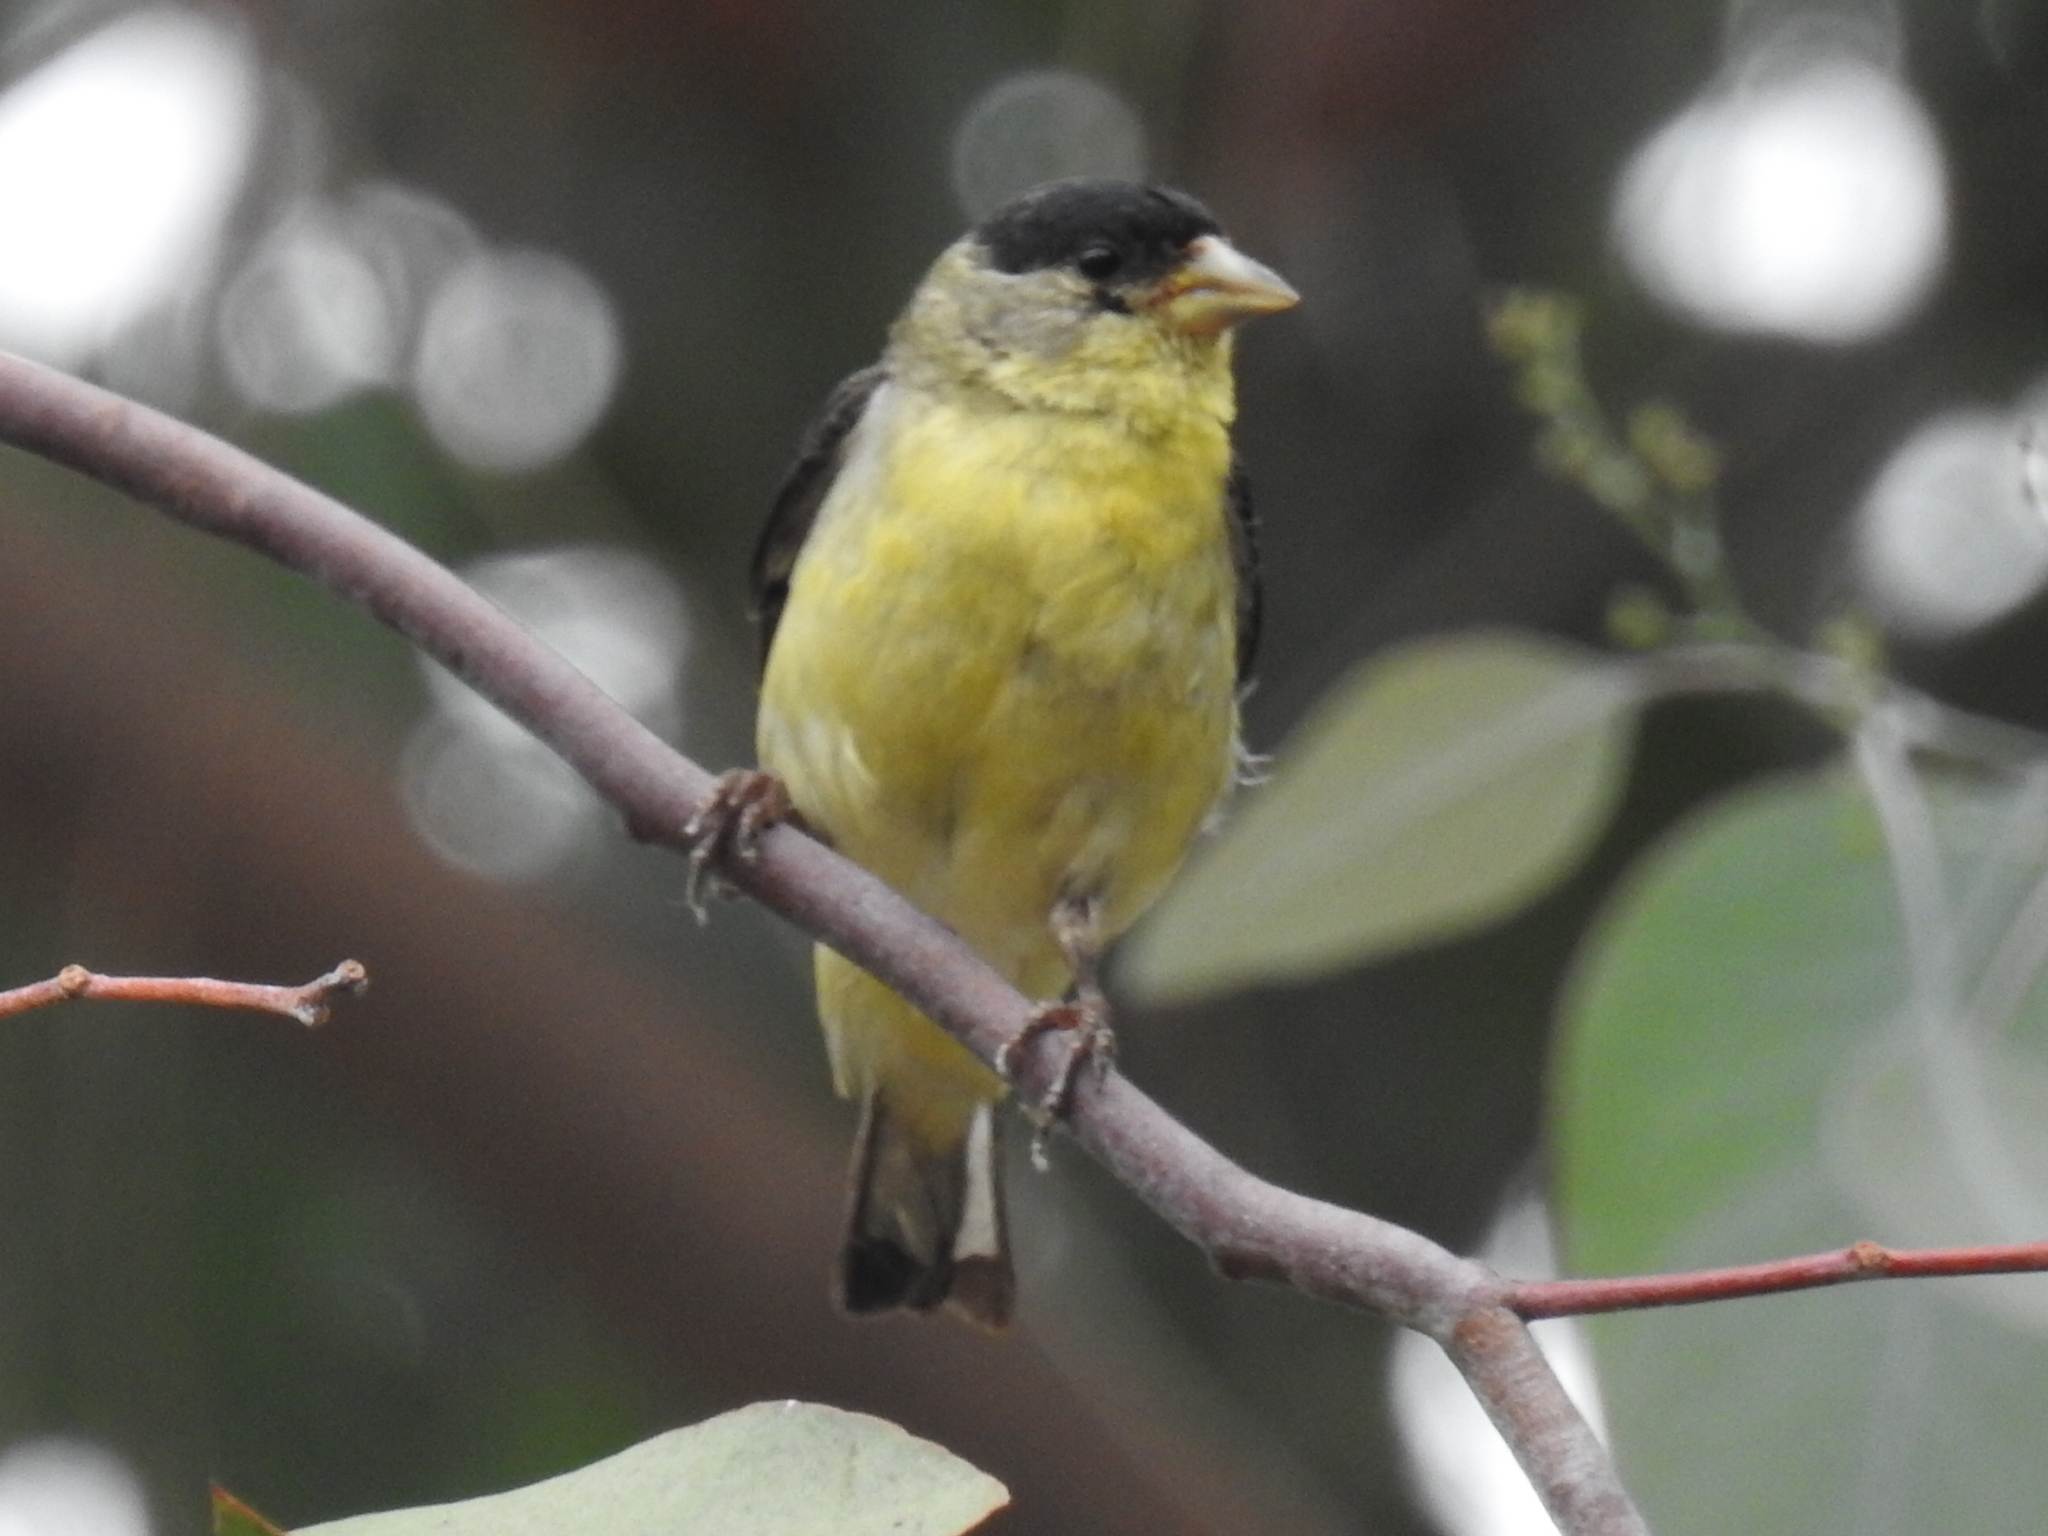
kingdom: Animalia
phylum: Chordata
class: Aves
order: Passeriformes
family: Fringillidae
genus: Spinus
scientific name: Spinus psaltria
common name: Lesser goldfinch
